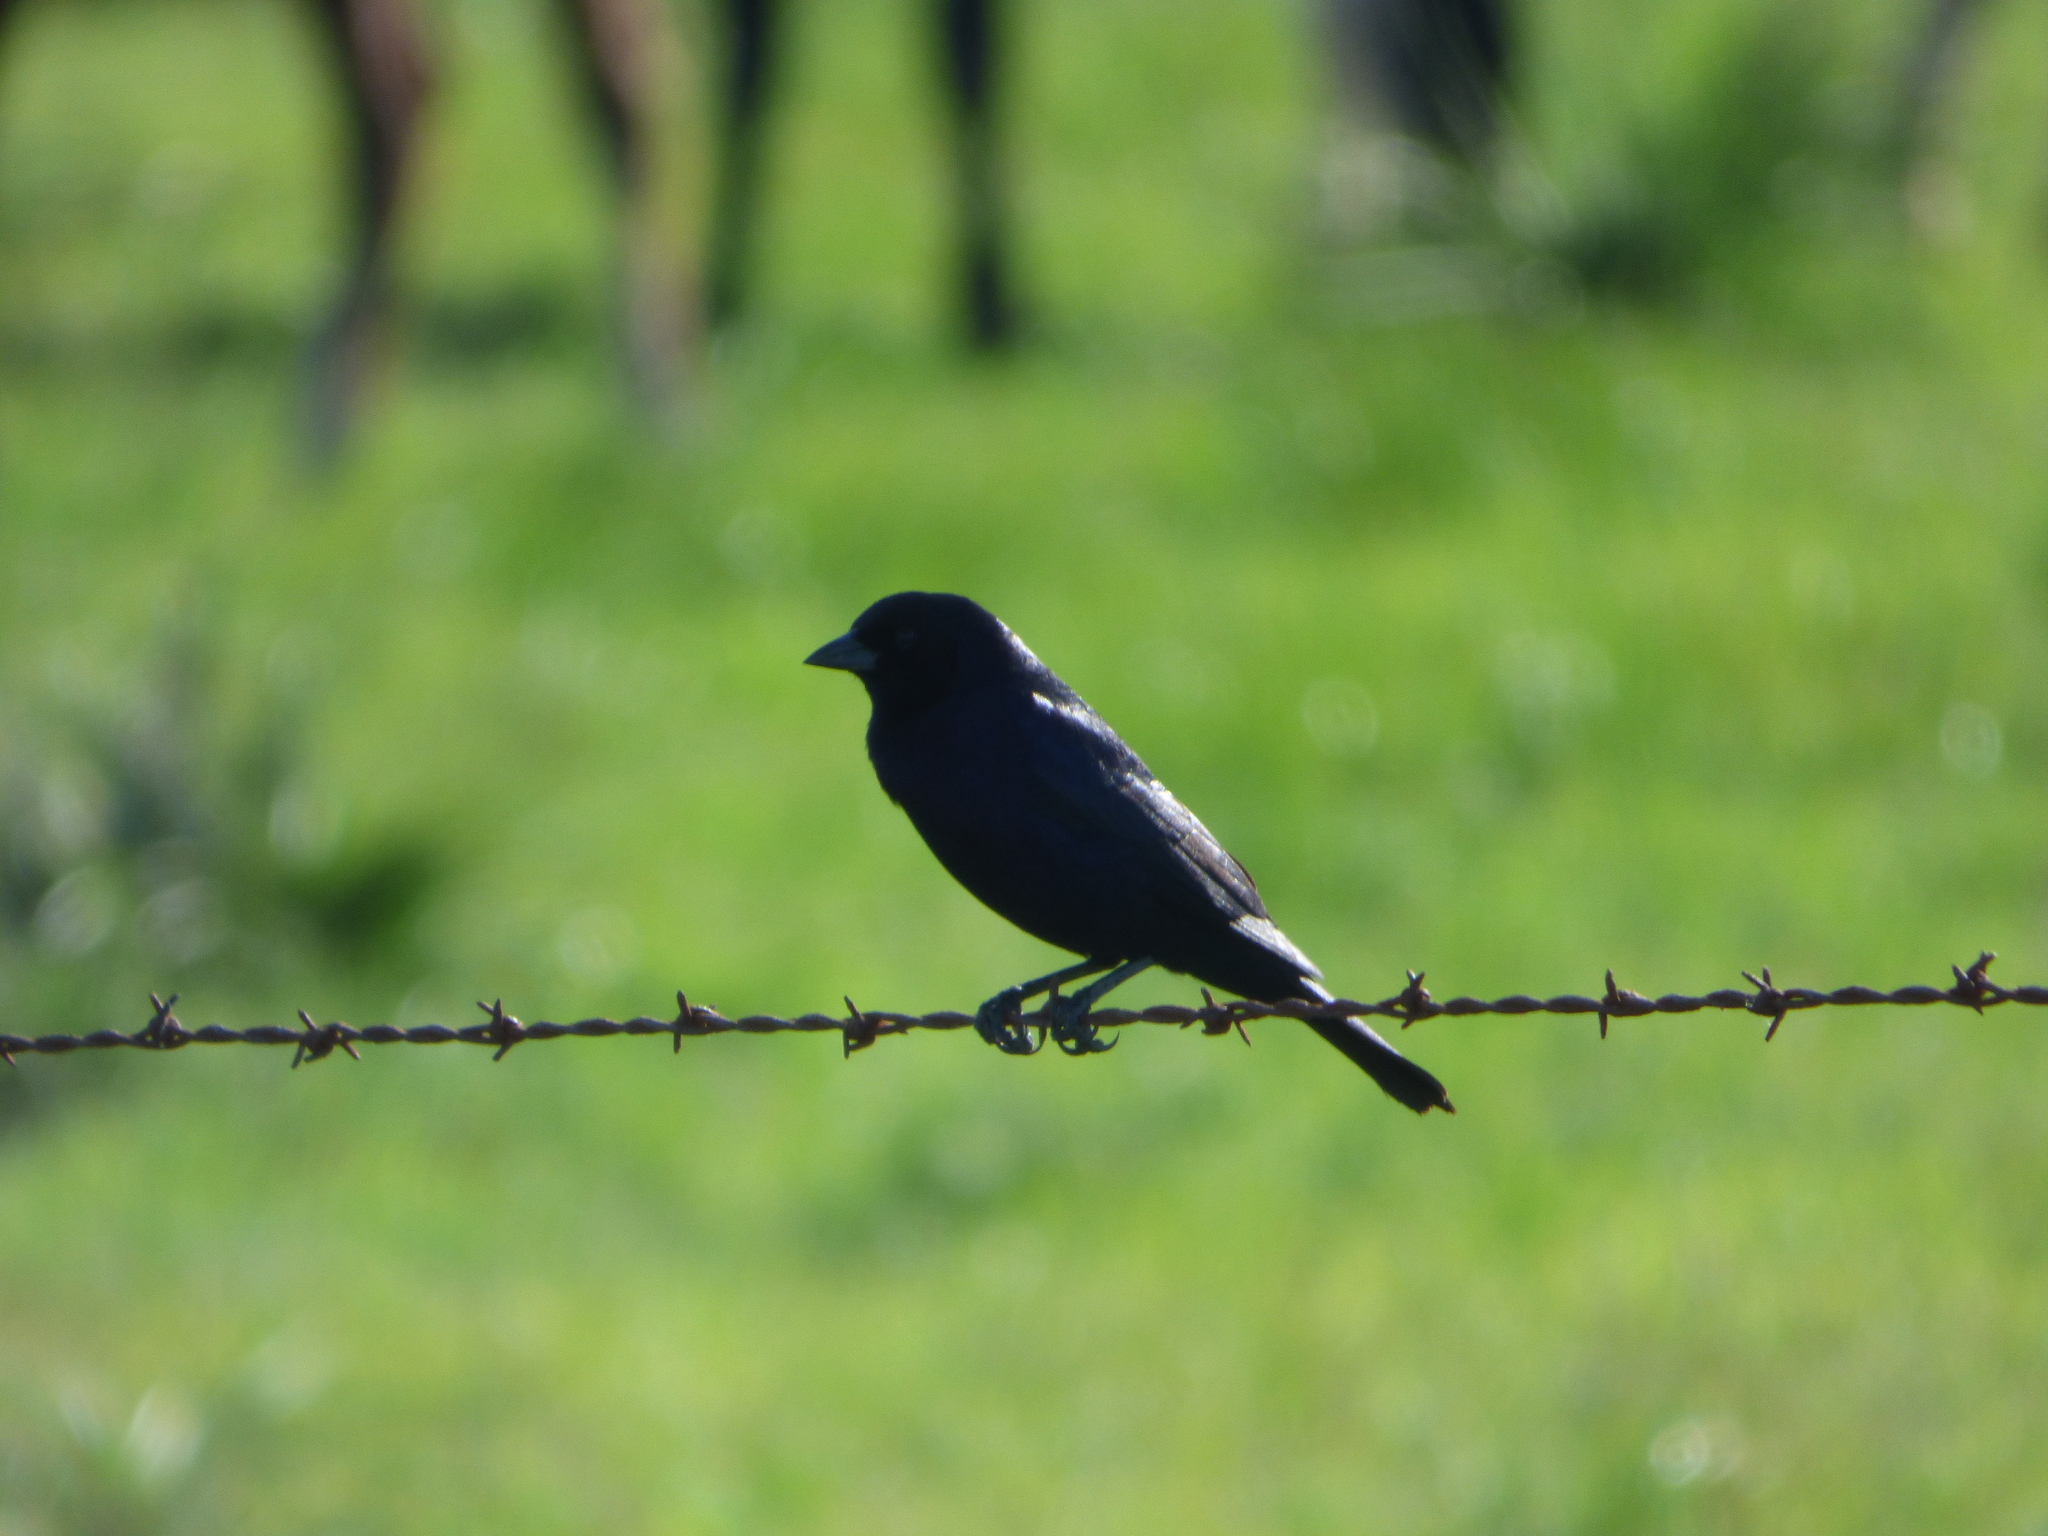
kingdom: Animalia
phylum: Chordata
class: Aves
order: Passeriformes
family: Icteridae
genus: Molothrus
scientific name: Molothrus bonariensis
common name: Shiny cowbird
